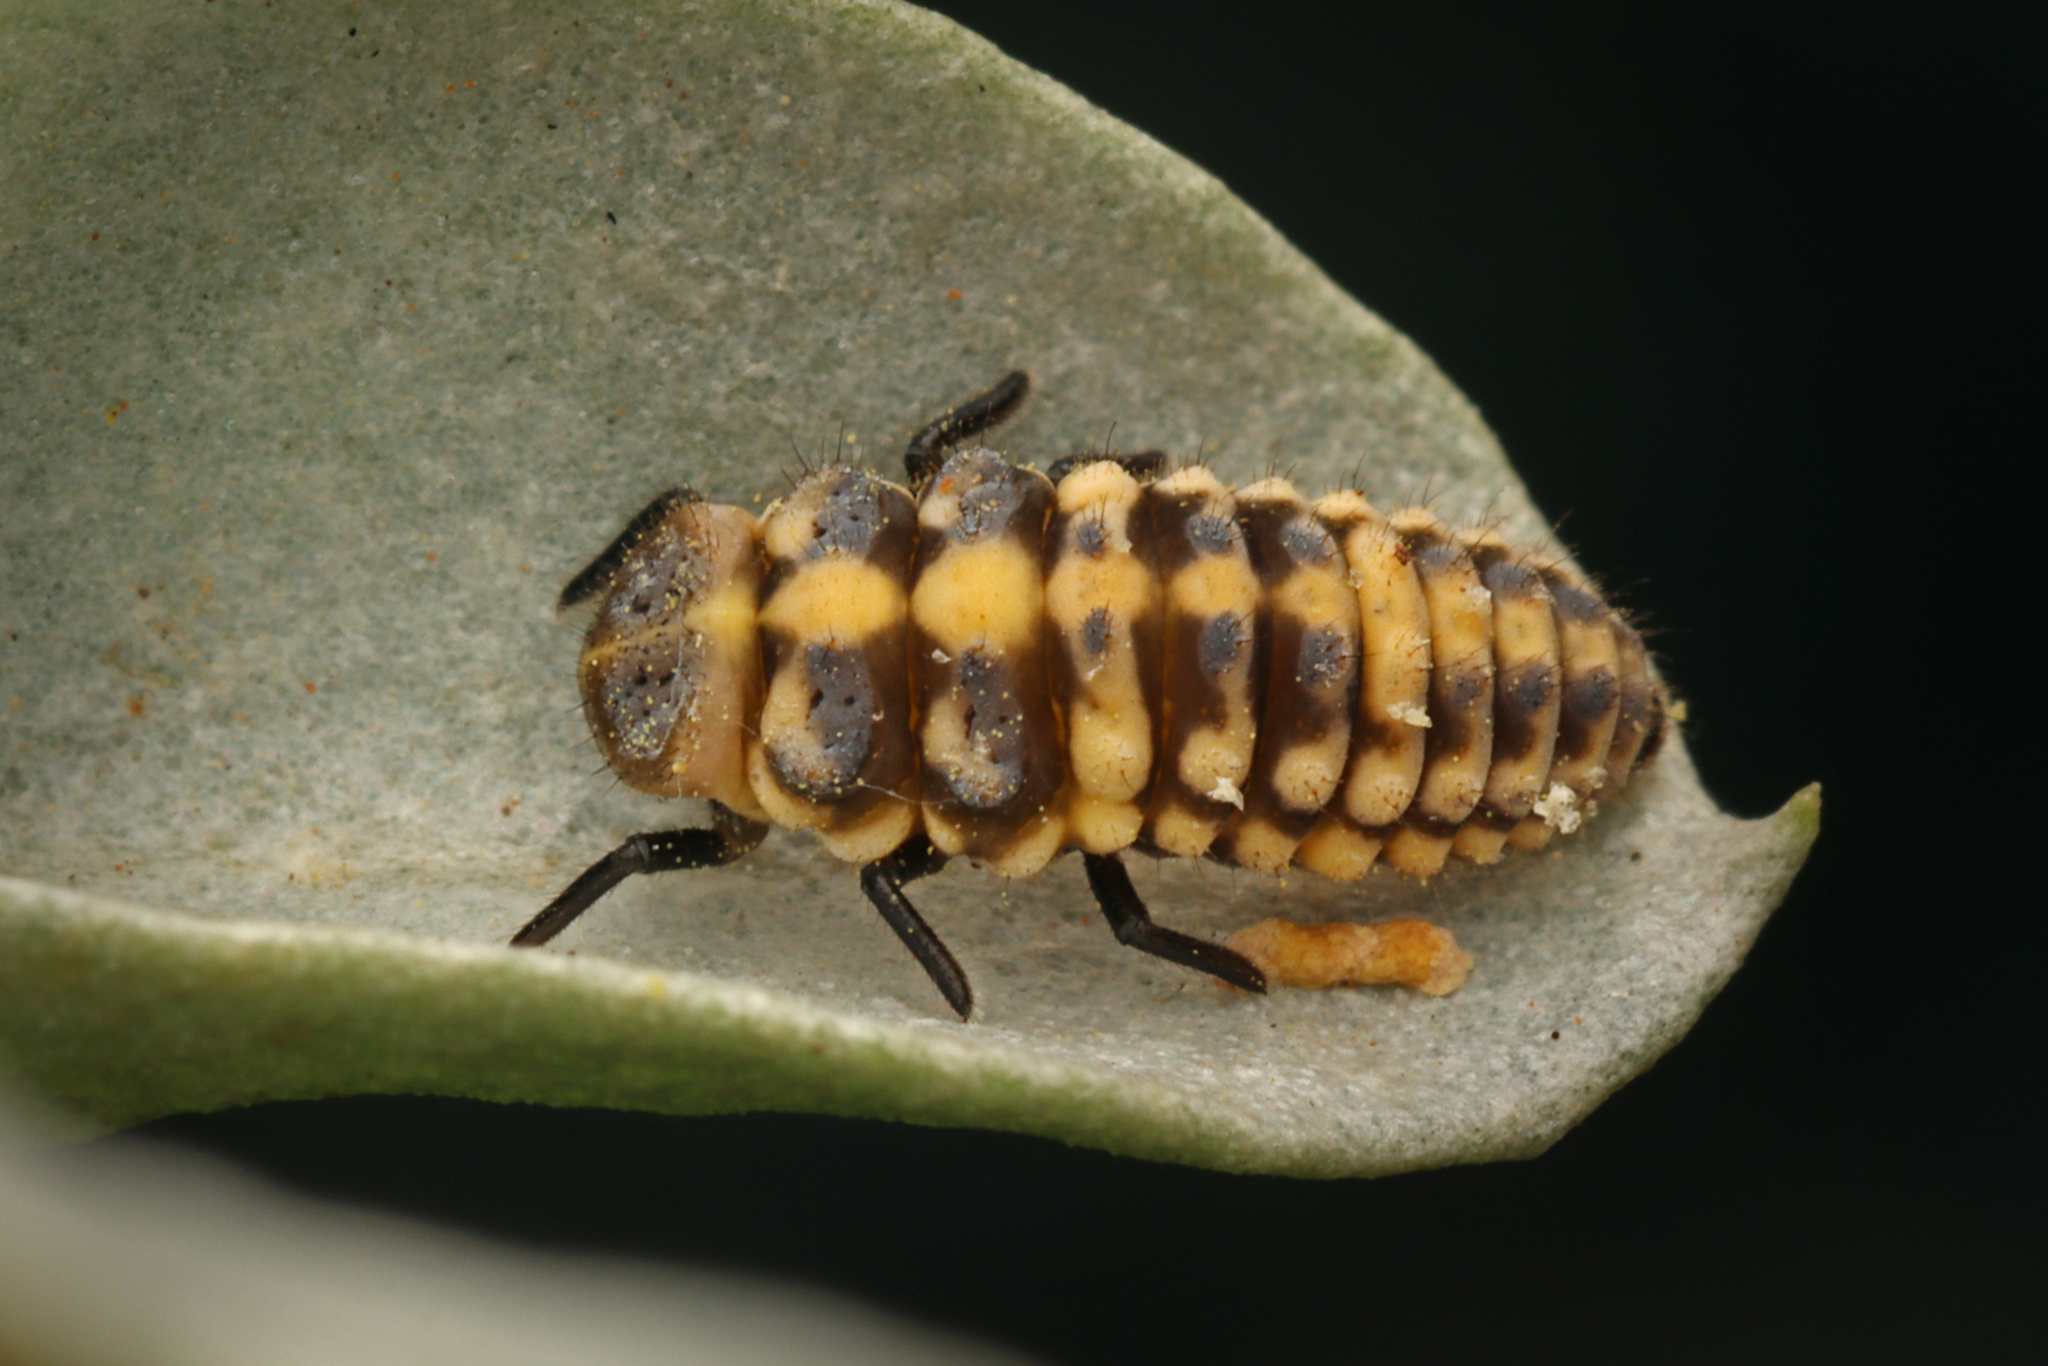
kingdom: Animalia
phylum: Arthropoda
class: Insecta
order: Coleoptera
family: Coccinellidae
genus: Micraspis
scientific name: Micraspis
